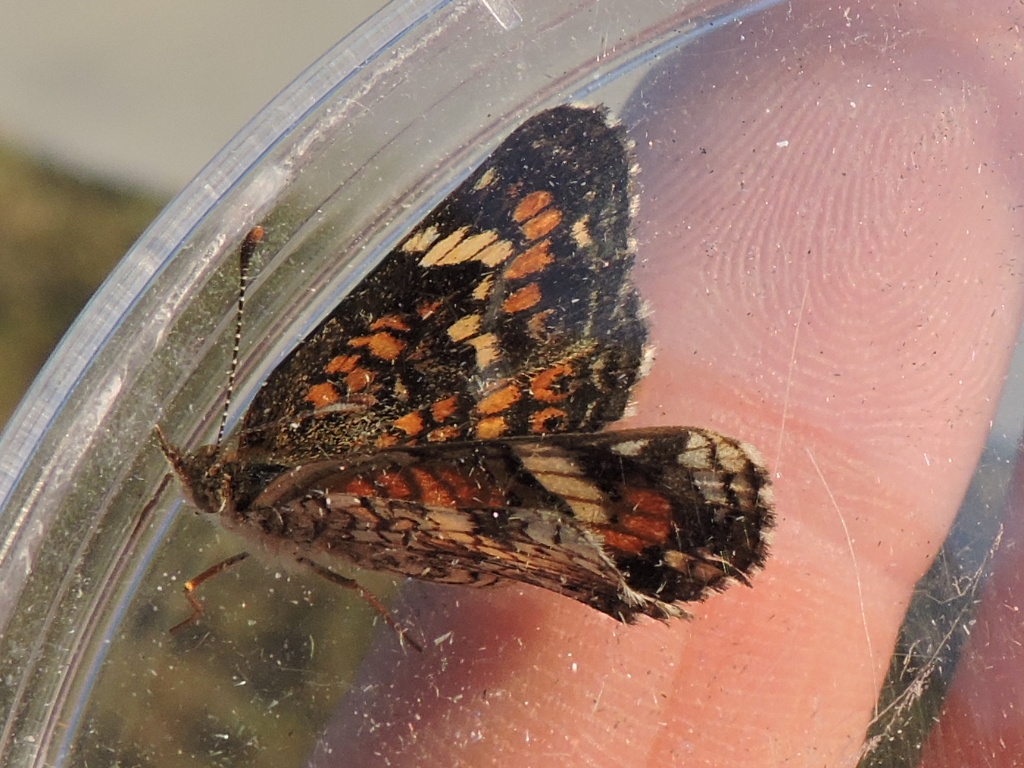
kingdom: Animalia
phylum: Arthropoda
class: Insecta
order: Lepidoptera
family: Nymphalidae
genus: Phyciodes
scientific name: Phyciodes phaon
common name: Phaon crescent
